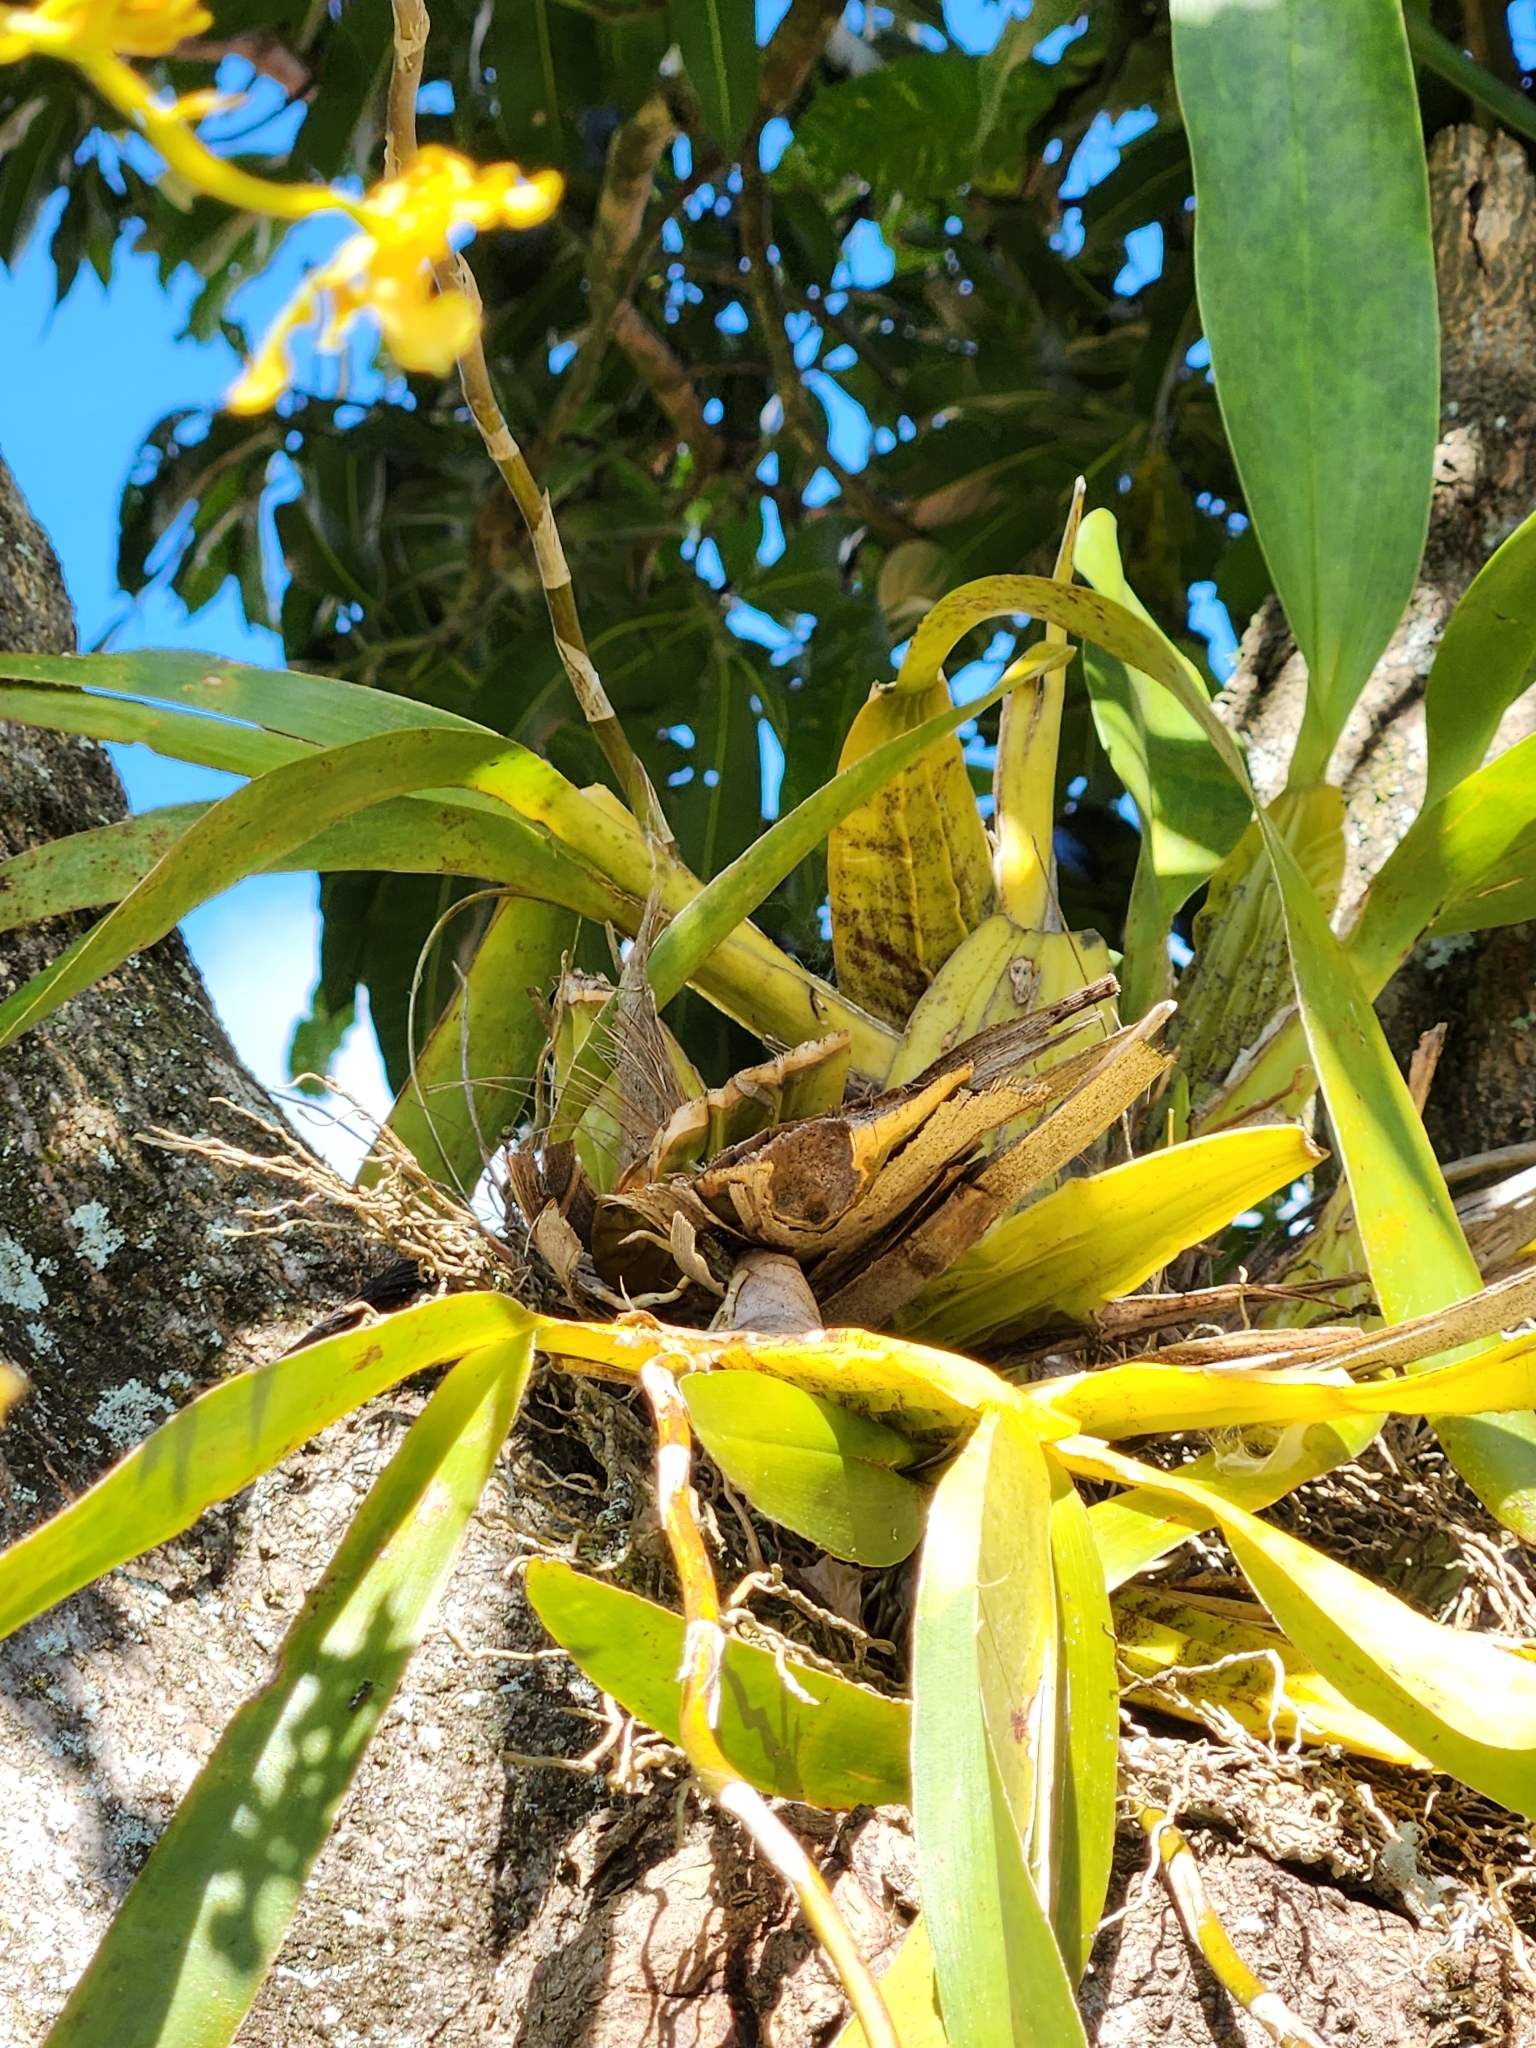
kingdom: Plantae
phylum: Tracheophyta
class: Liliopsida
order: Asparagales
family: Orchidaceae
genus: Oncidium
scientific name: Oncidium lineoligerum
